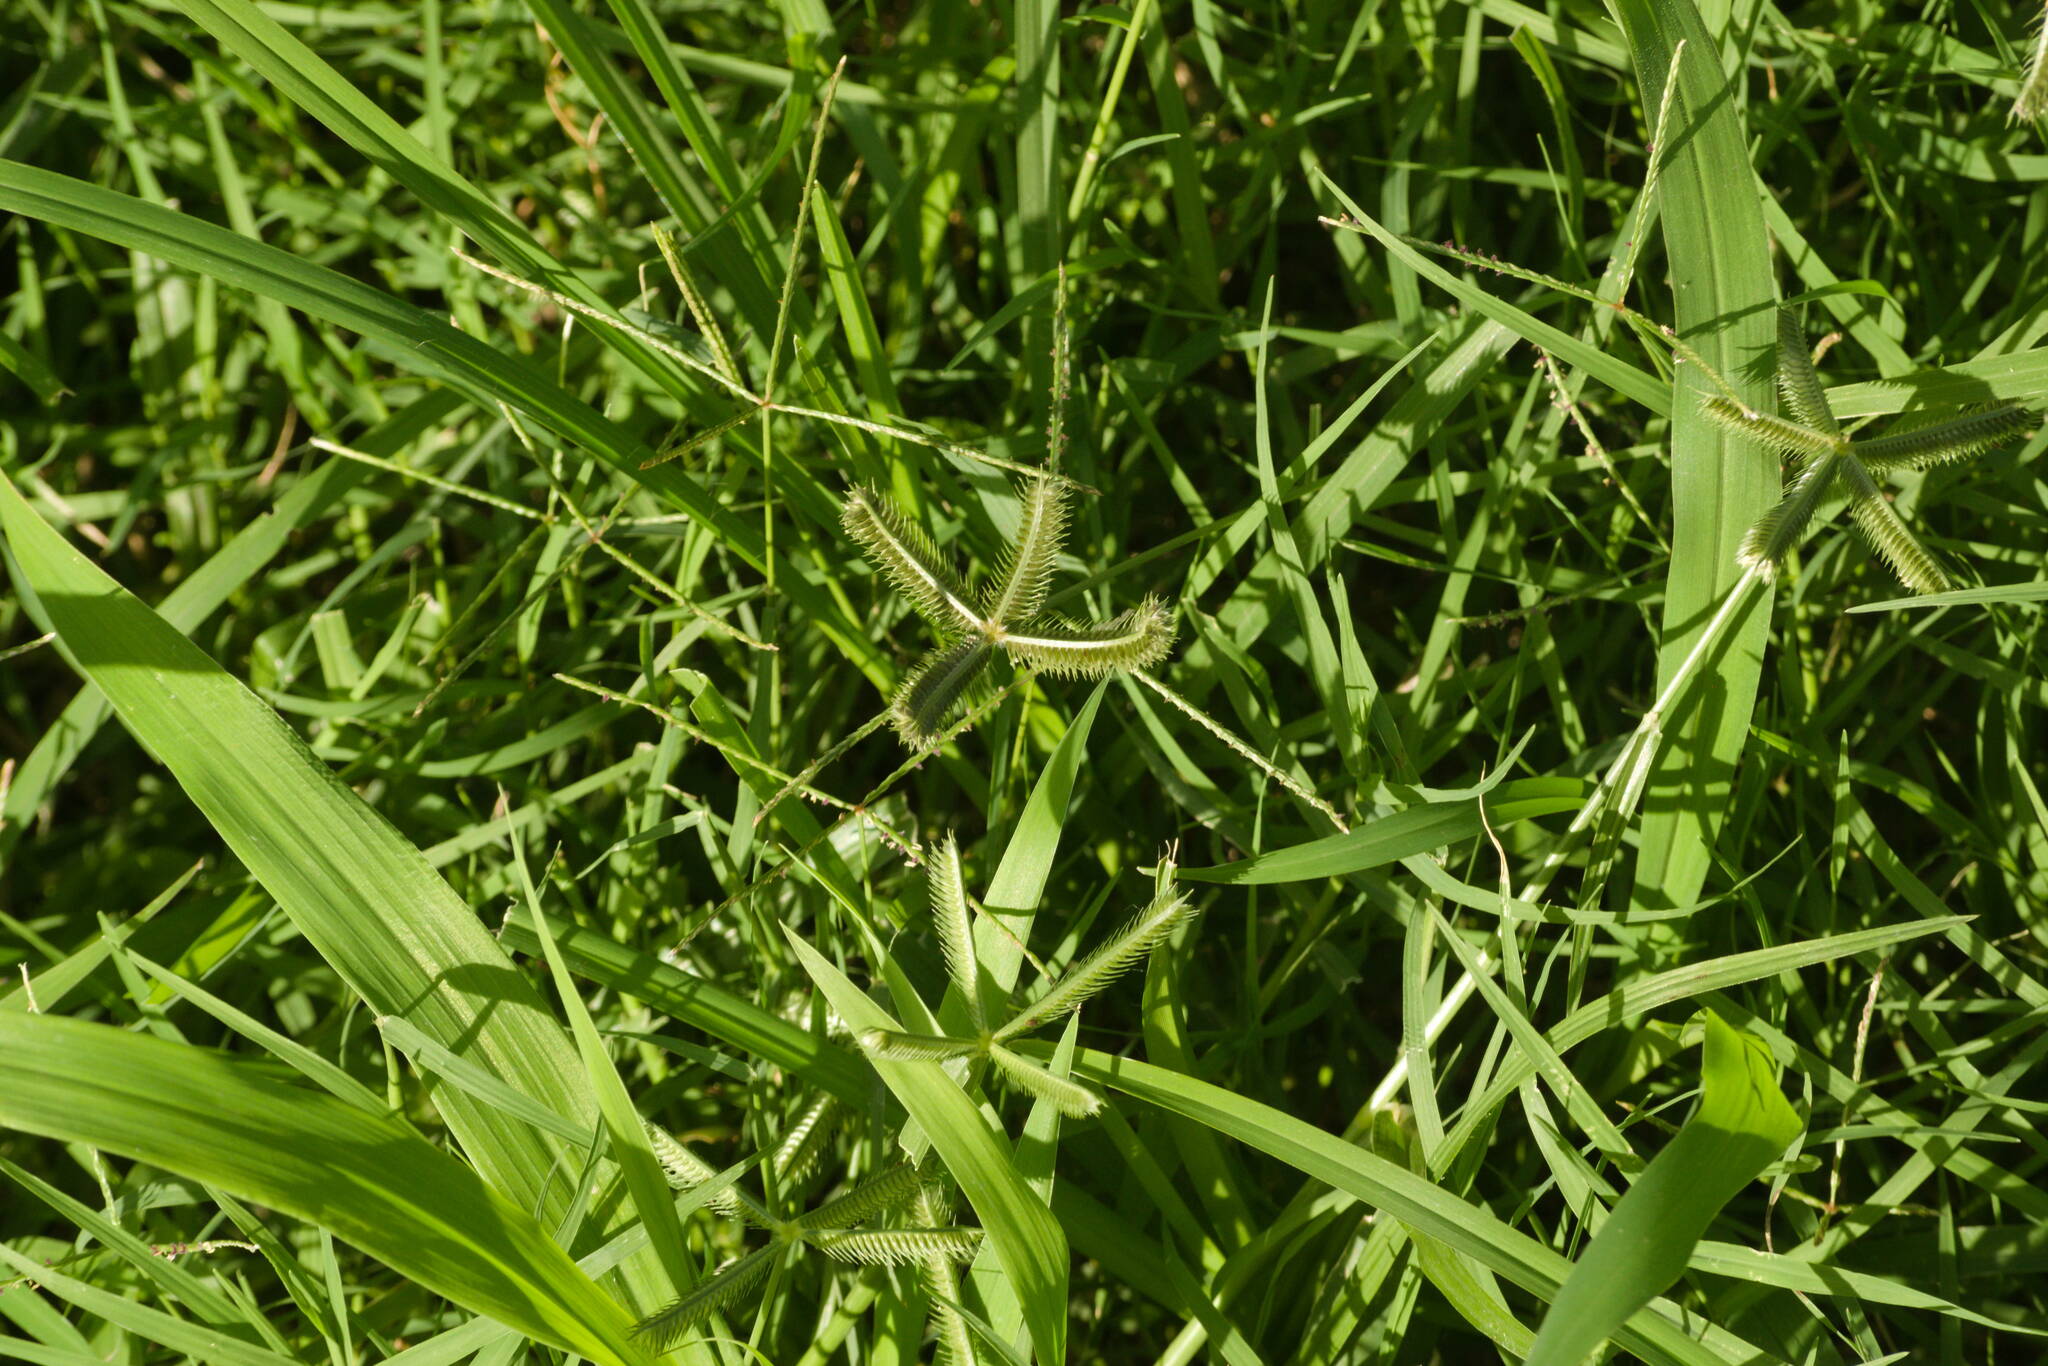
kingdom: Plantae
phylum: Tracheophyta
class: Liliopsida
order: Poales
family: Poaceae
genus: Cynodon
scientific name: Cynodon dactylon
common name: Bermuda grass
